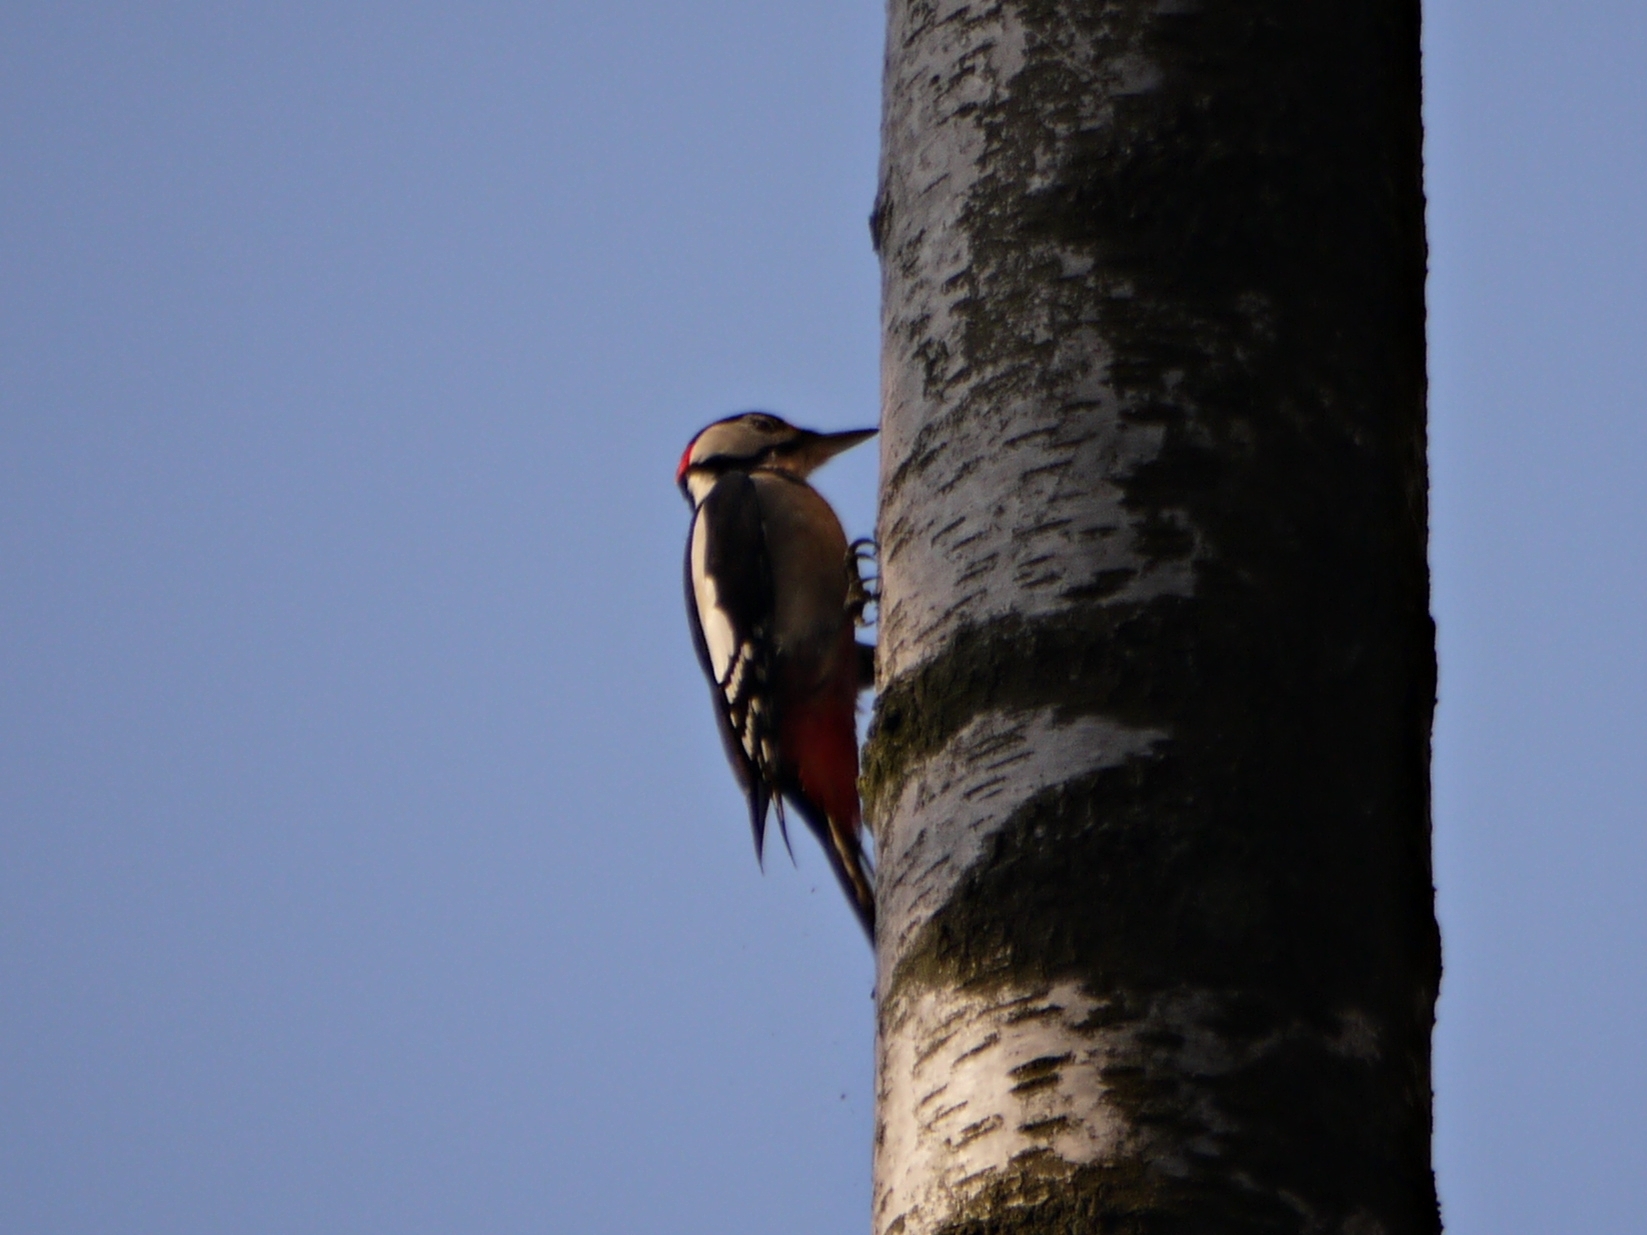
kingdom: Animalia
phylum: Chordata
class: Aves
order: Piciformes
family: Picidae
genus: Dendrocopos
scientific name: Dendrocopos major
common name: Great spotted woodpecker
